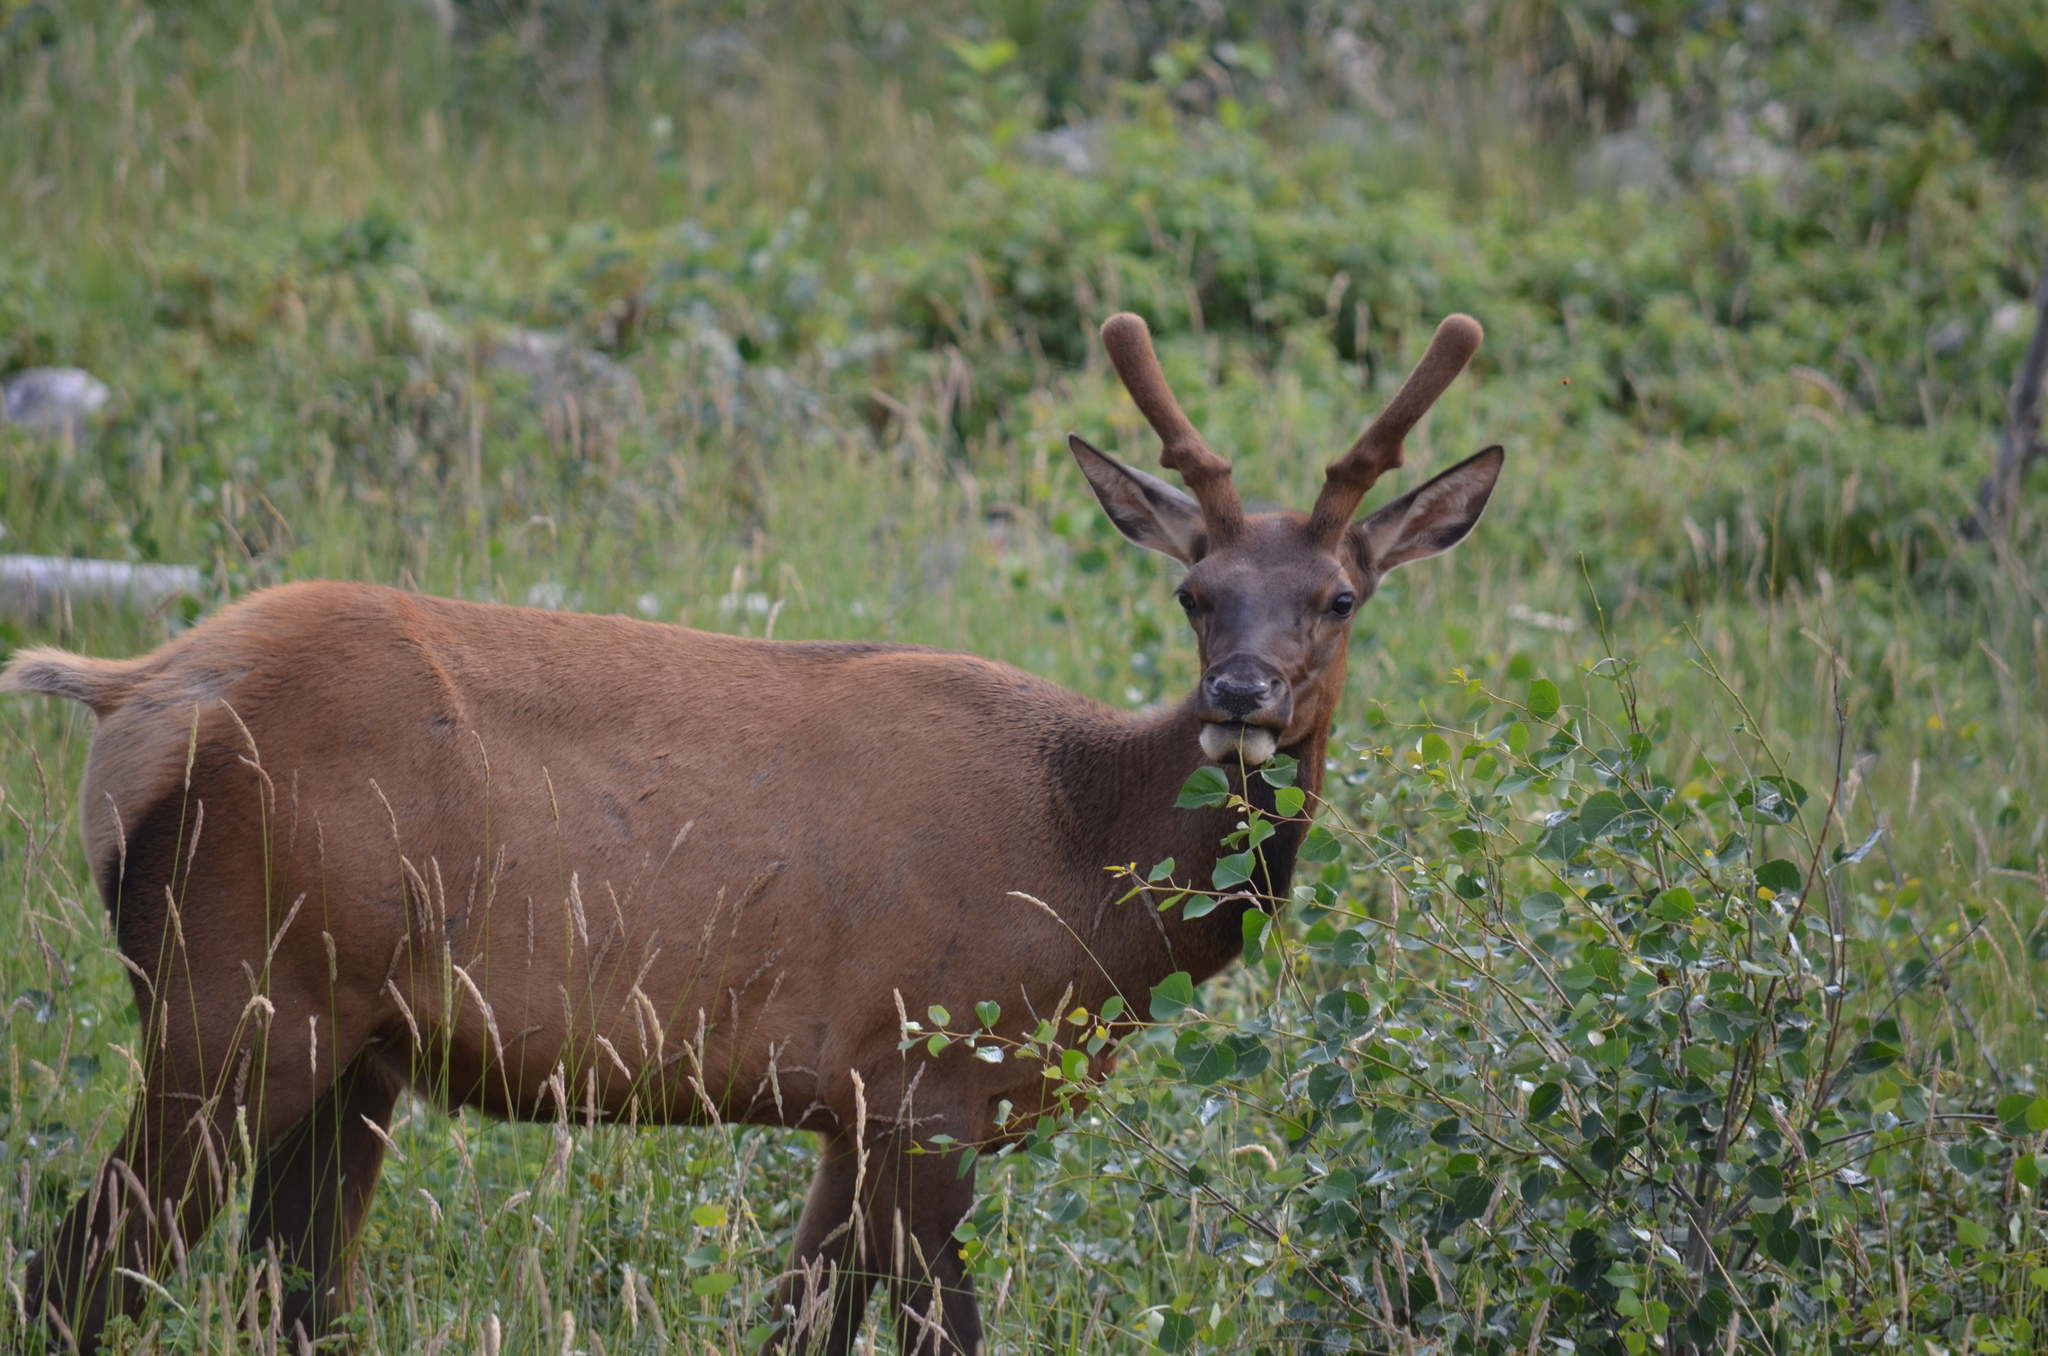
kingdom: Animalia
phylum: Chordata
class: Mammalia
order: Artiodactyla
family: Cervidae
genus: Cervus
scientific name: Cervus elaphus
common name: Red deer
